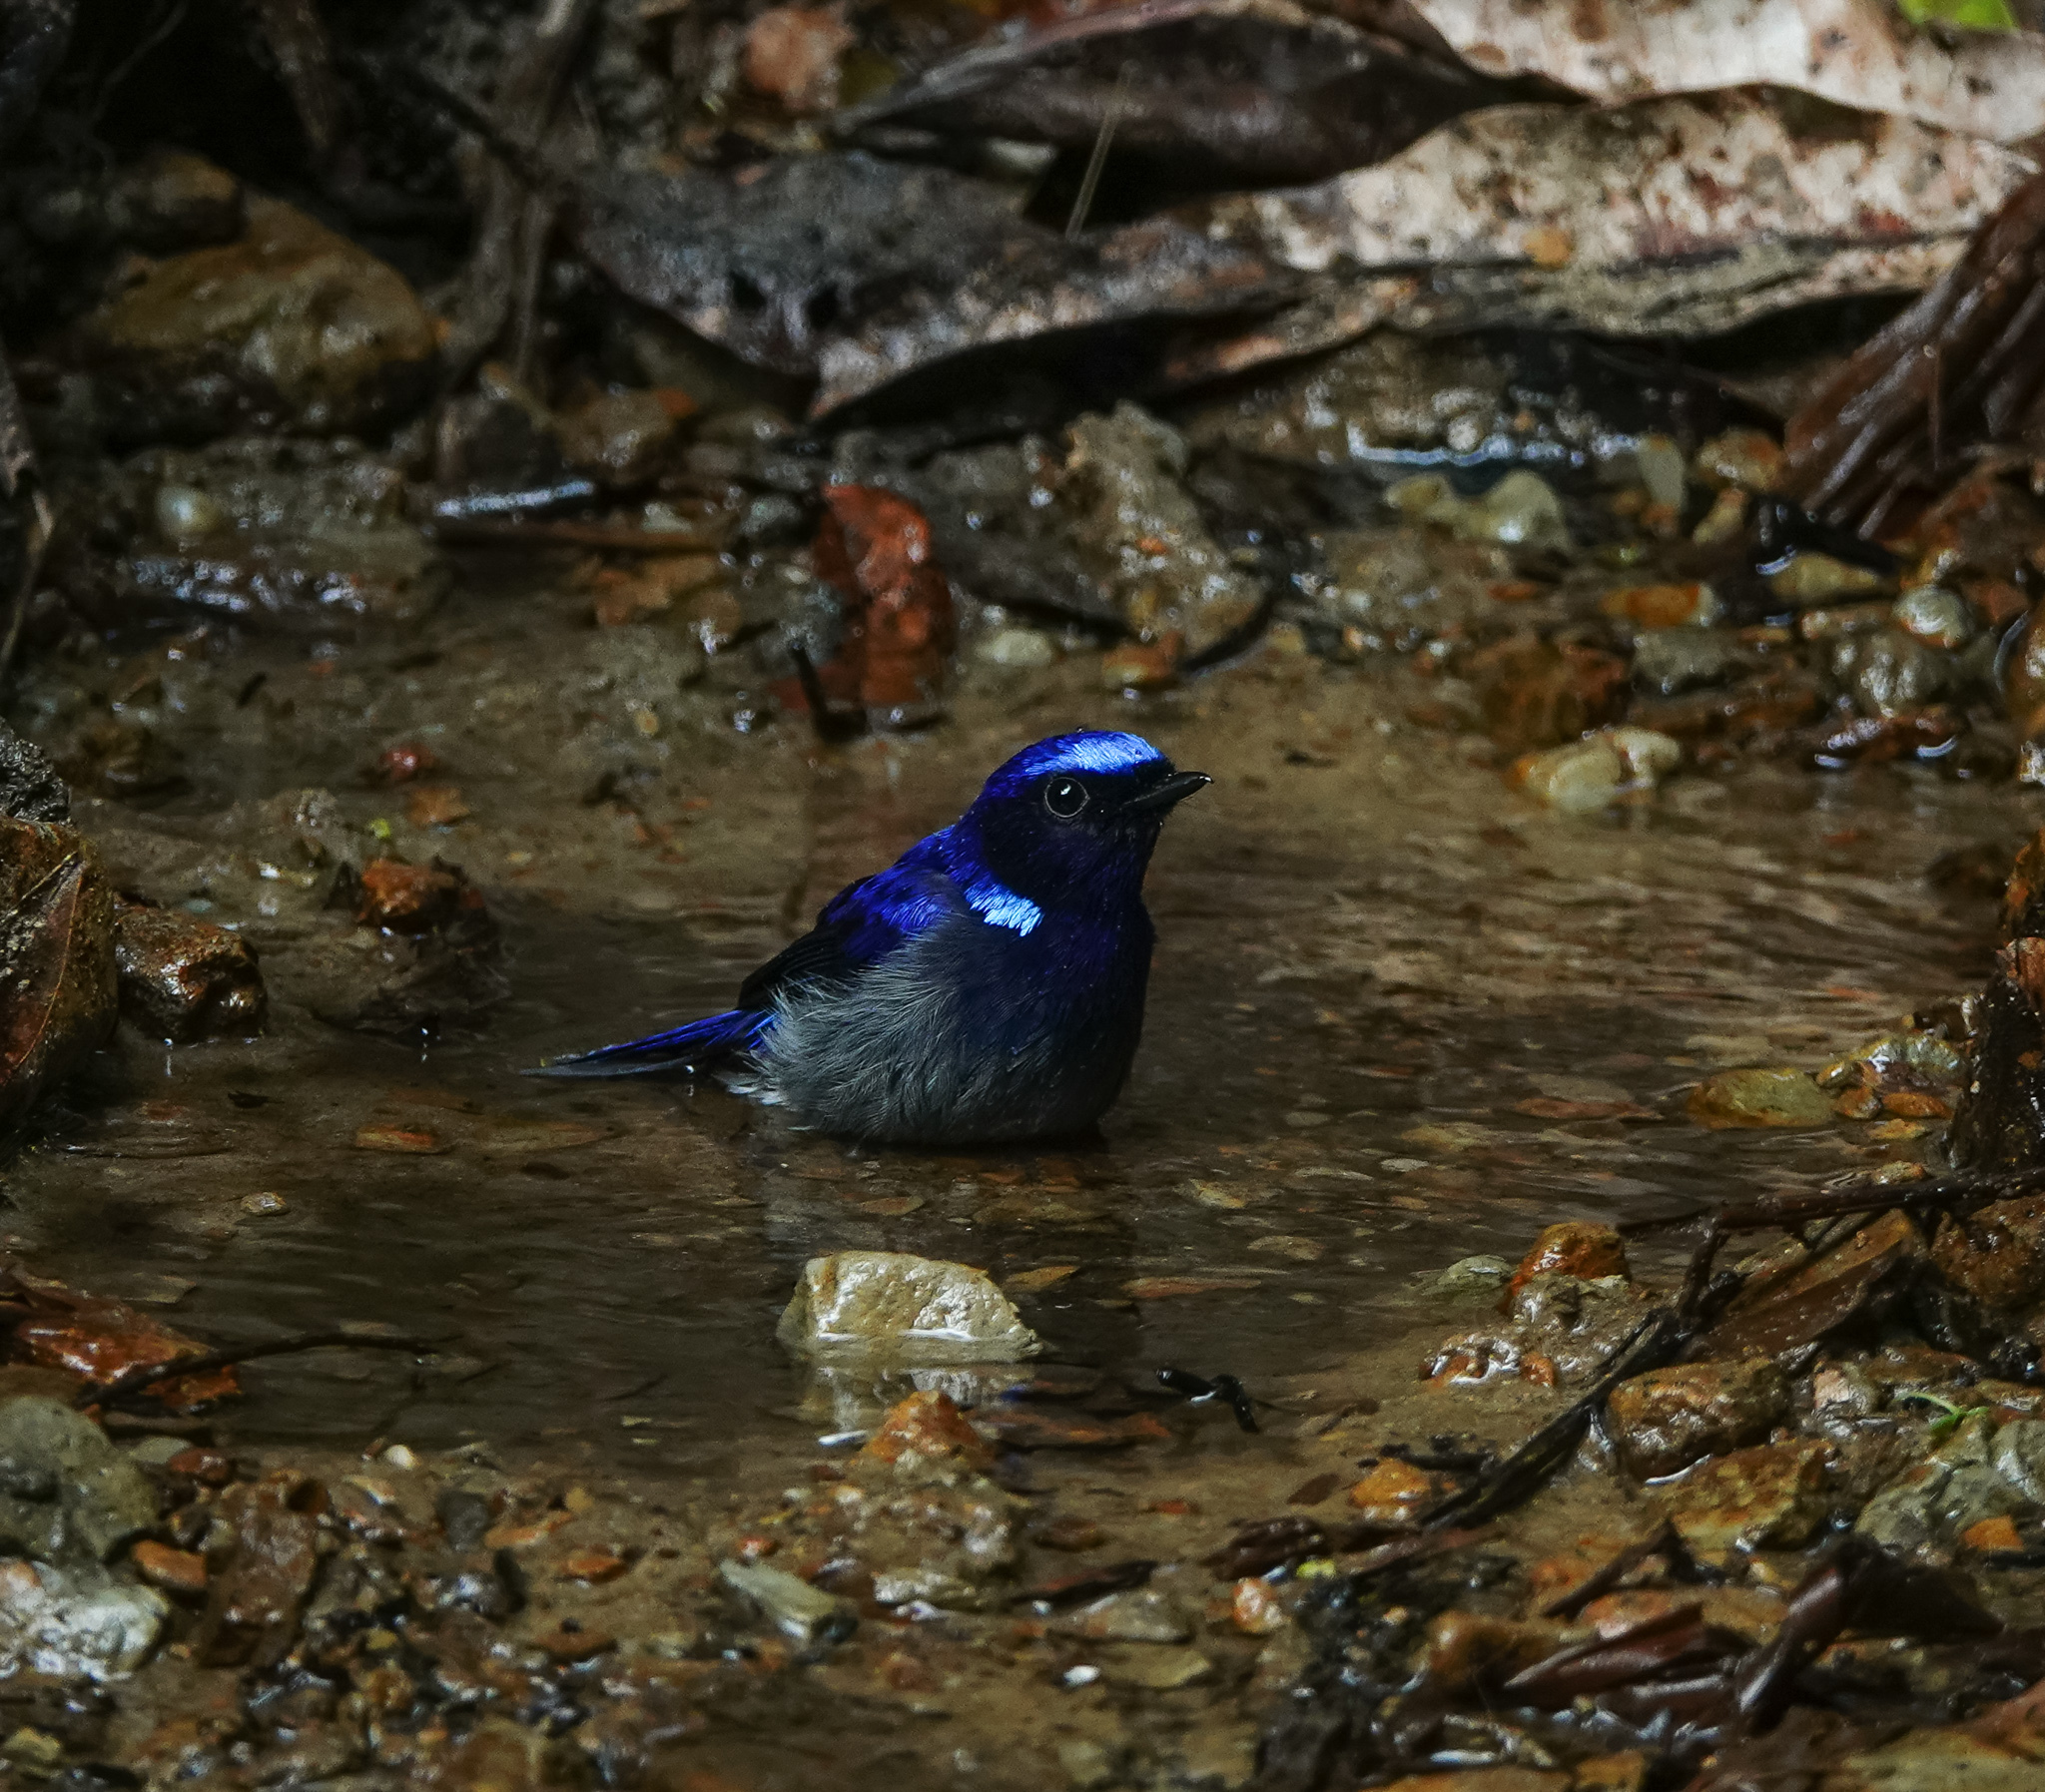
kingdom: Animalia
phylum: Chordata
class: Aves
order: Passeriformes
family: Muscicapidae
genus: Niltava
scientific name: Niltava macgrigoriae
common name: Small niltava
